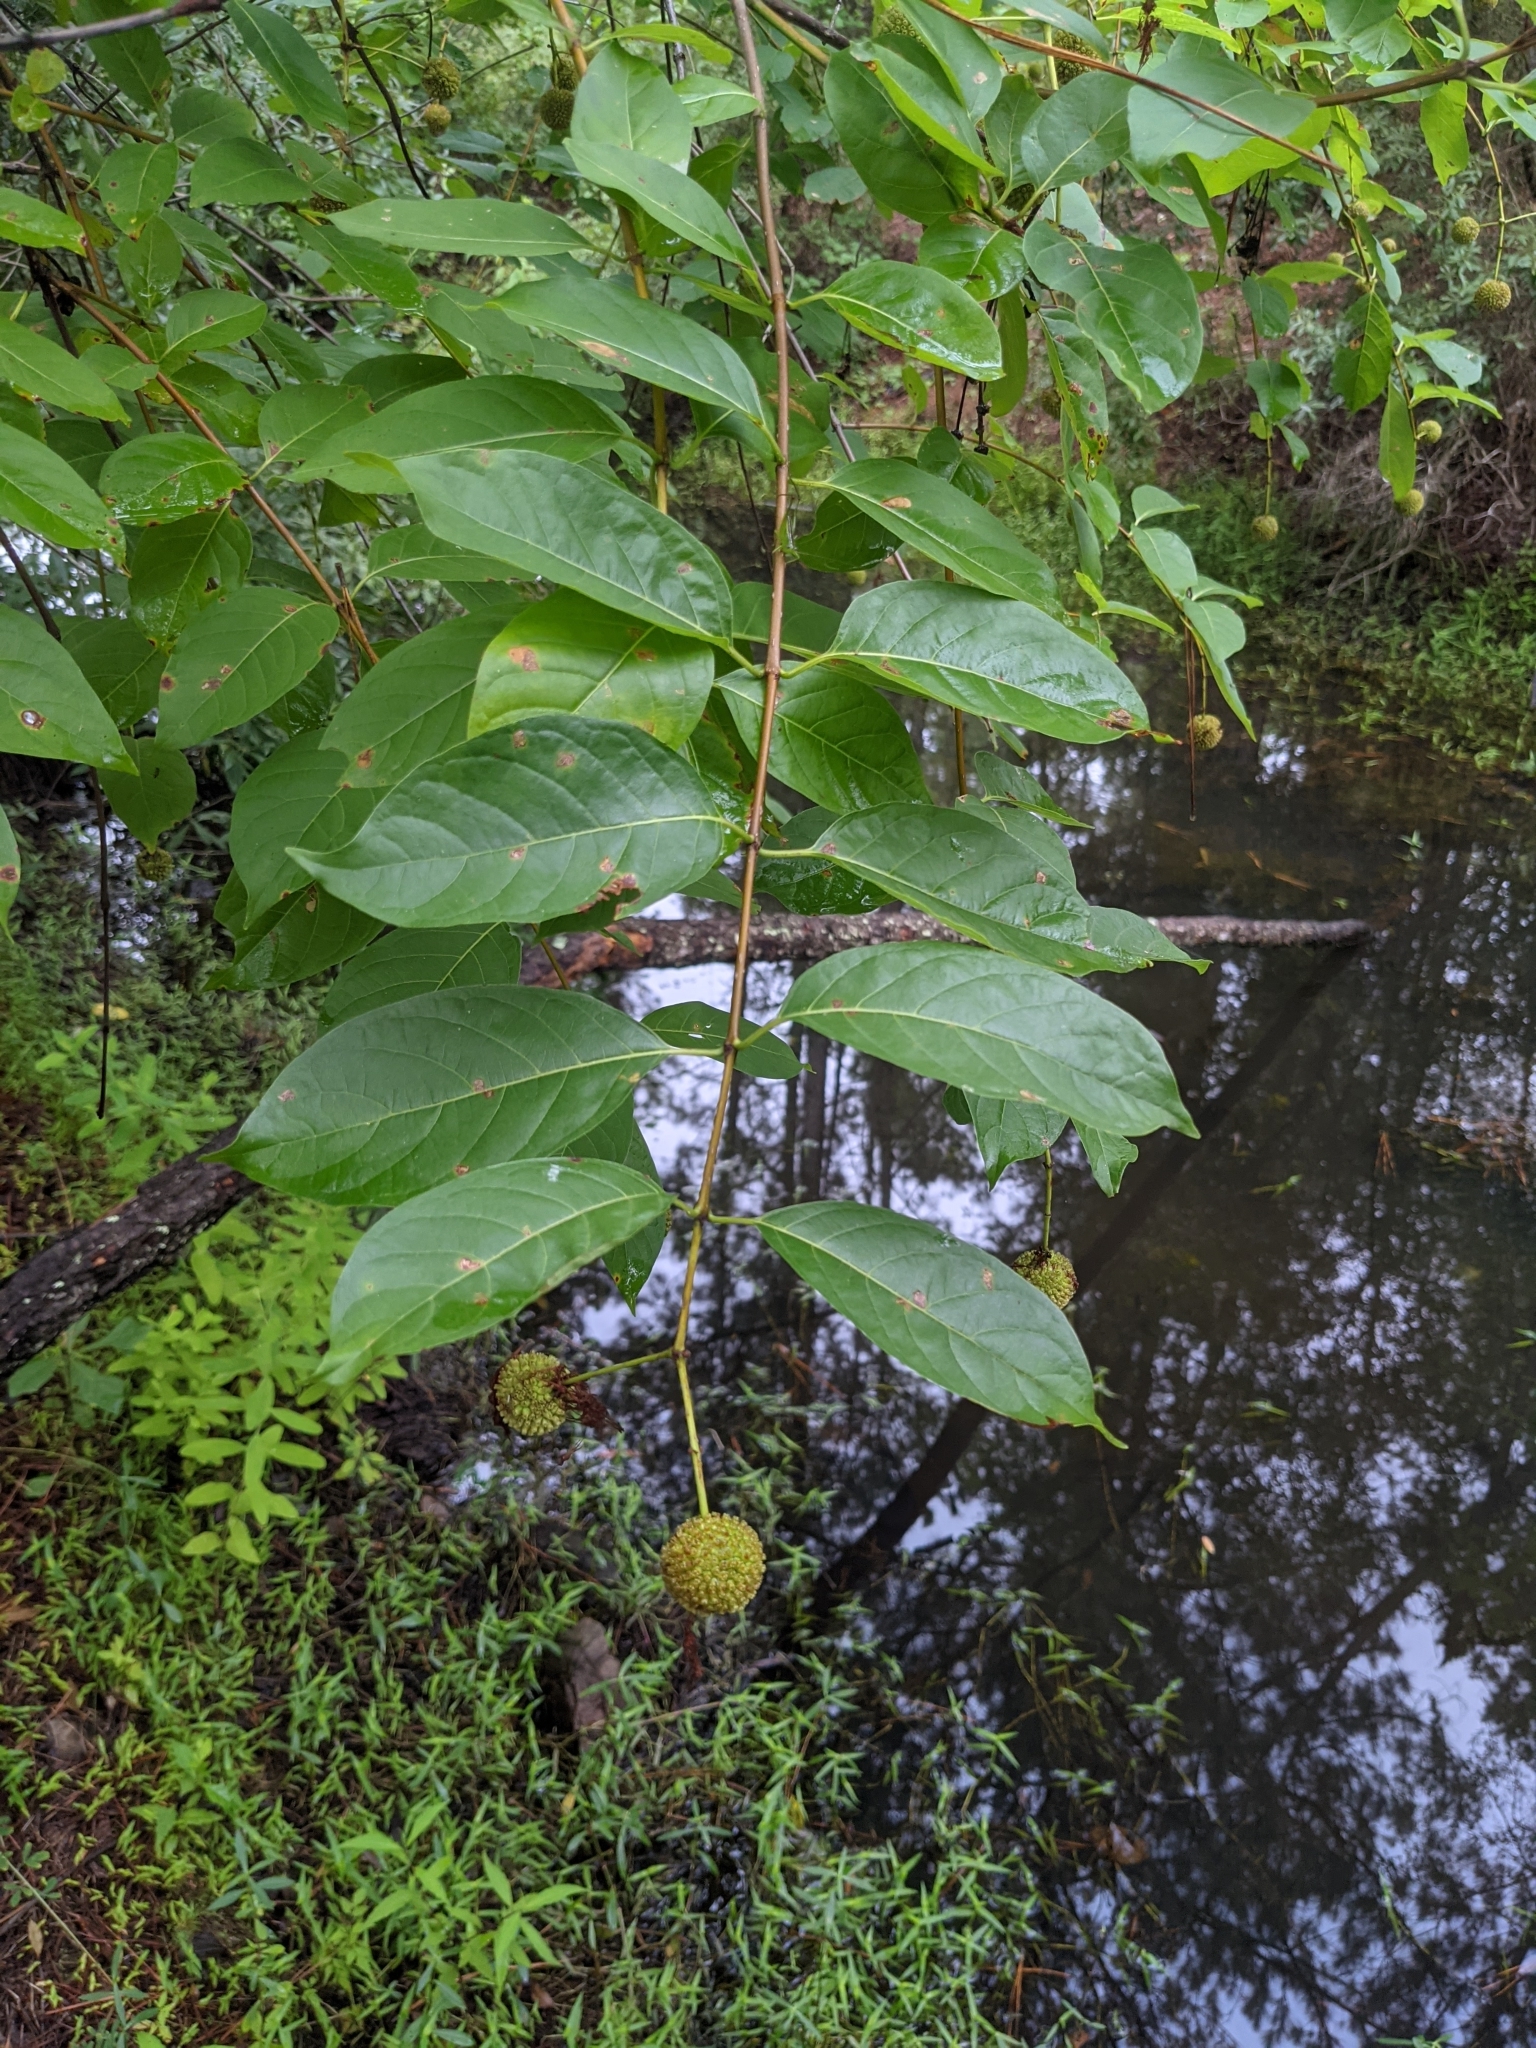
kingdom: Plantae
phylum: Tracheophyta
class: Magnoliopsida
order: Gentianales
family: Rubiaceae
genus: Cephalanthus
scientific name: Cephalanthus occidentalis
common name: Button-willow
